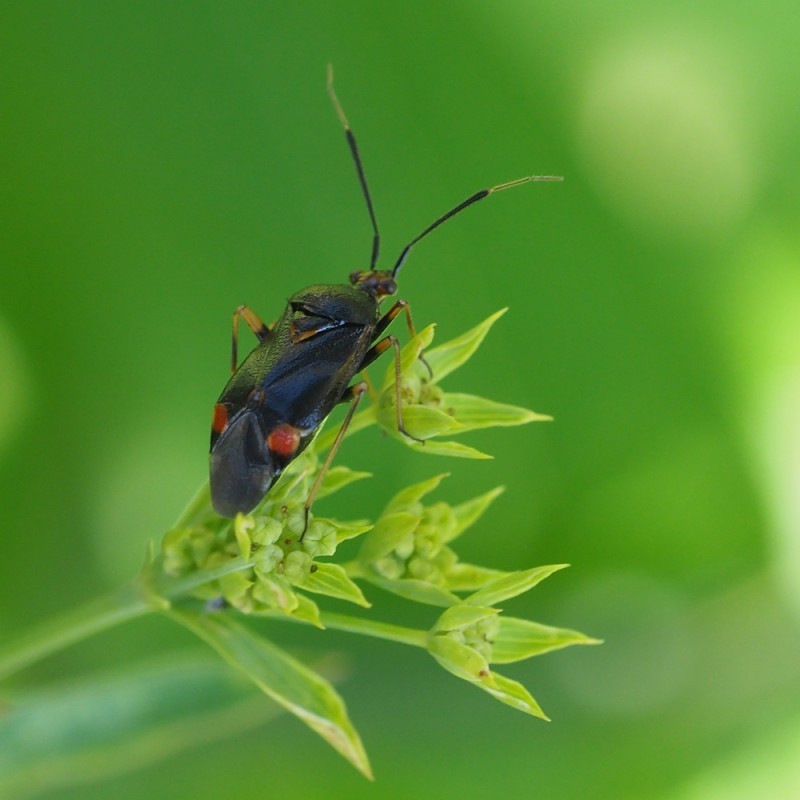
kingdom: Animalia
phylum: Arthropoda
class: Insecta
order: Hemiptera
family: Miridae
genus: Deraeocoris
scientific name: Deraeocoris ruber
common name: Plant bug
